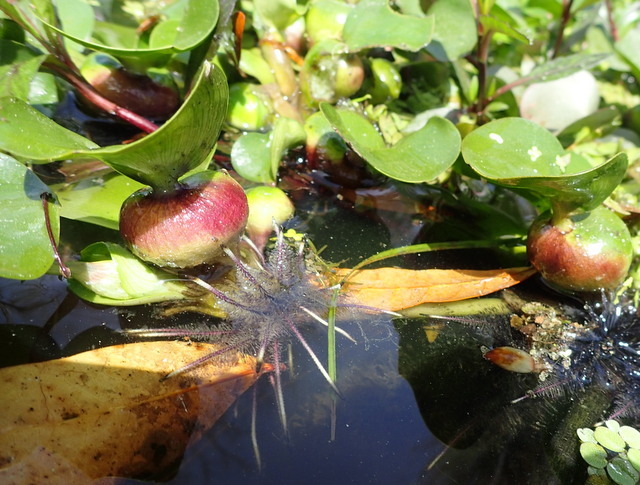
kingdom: Plantae
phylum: Tracheophyta
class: Liliopsida
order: Commelinales
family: Pontederiaceae
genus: Pontederia
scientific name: Pontederia crassipes
